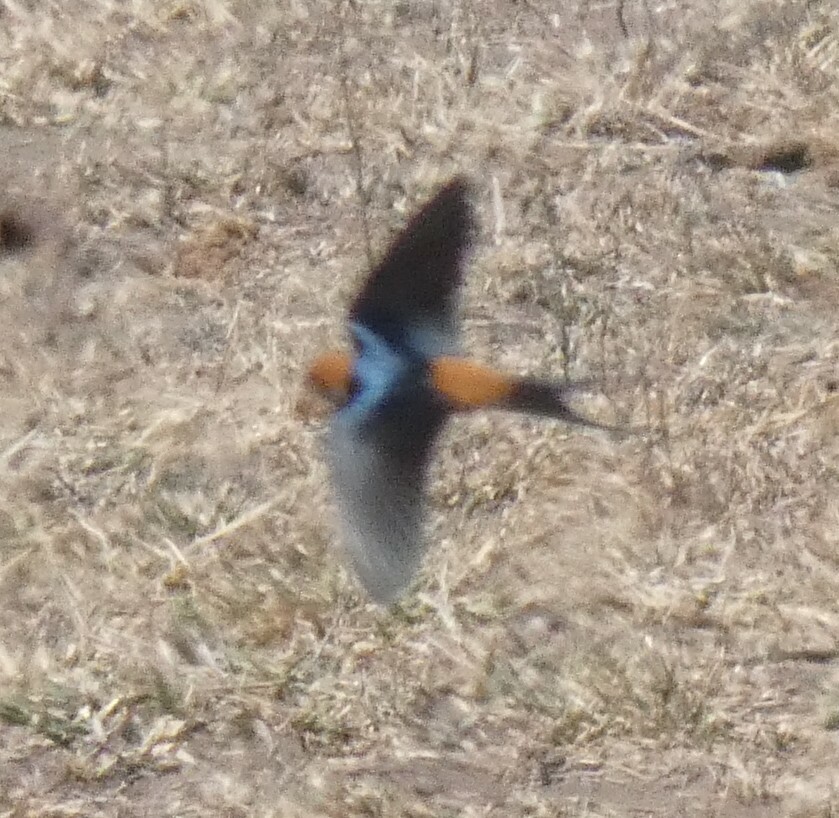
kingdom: Animalia
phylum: Chordata
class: Aves
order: Passeriformes
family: Hirundinidae
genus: Cecropis
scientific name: Cecropis abyssinica
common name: Lesser striped-swallow
